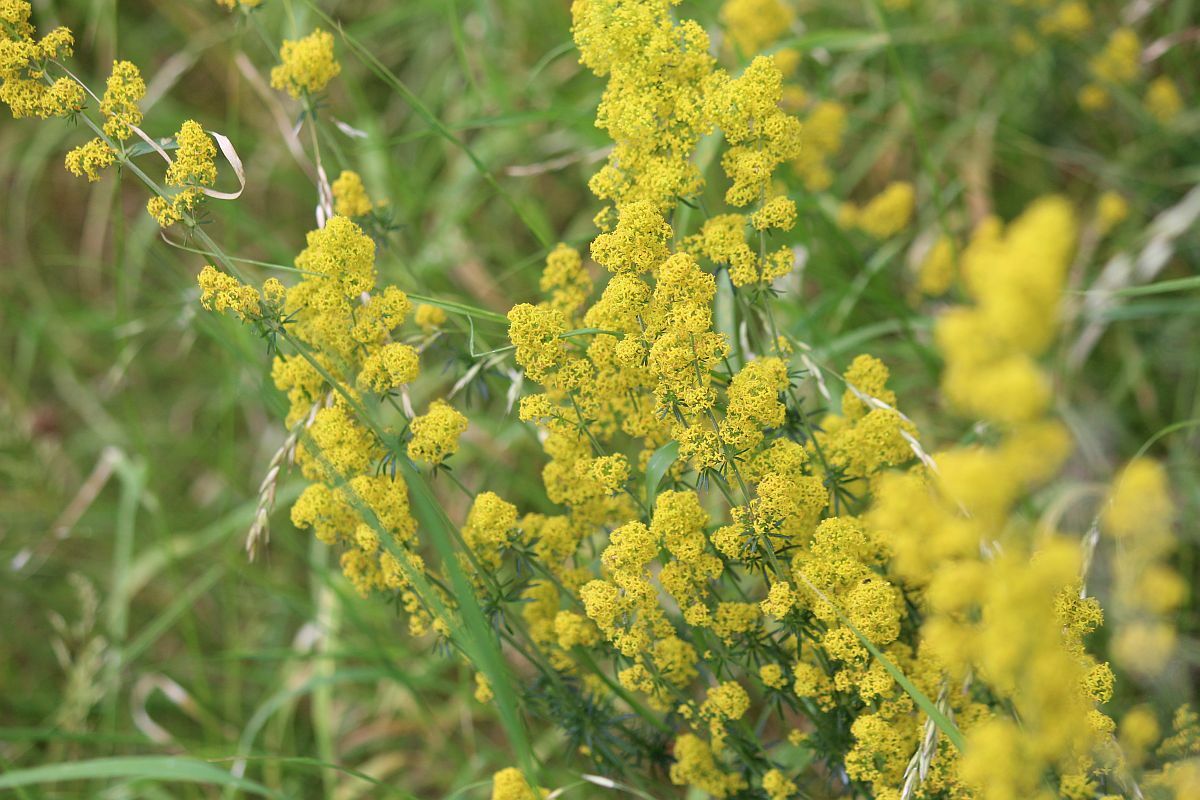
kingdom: Plantae
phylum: Tracheophyta
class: Magnoliopsida
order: Gentianales
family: Rubiaceae
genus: Galium
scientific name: Galium verum
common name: Lady's bedstraw
